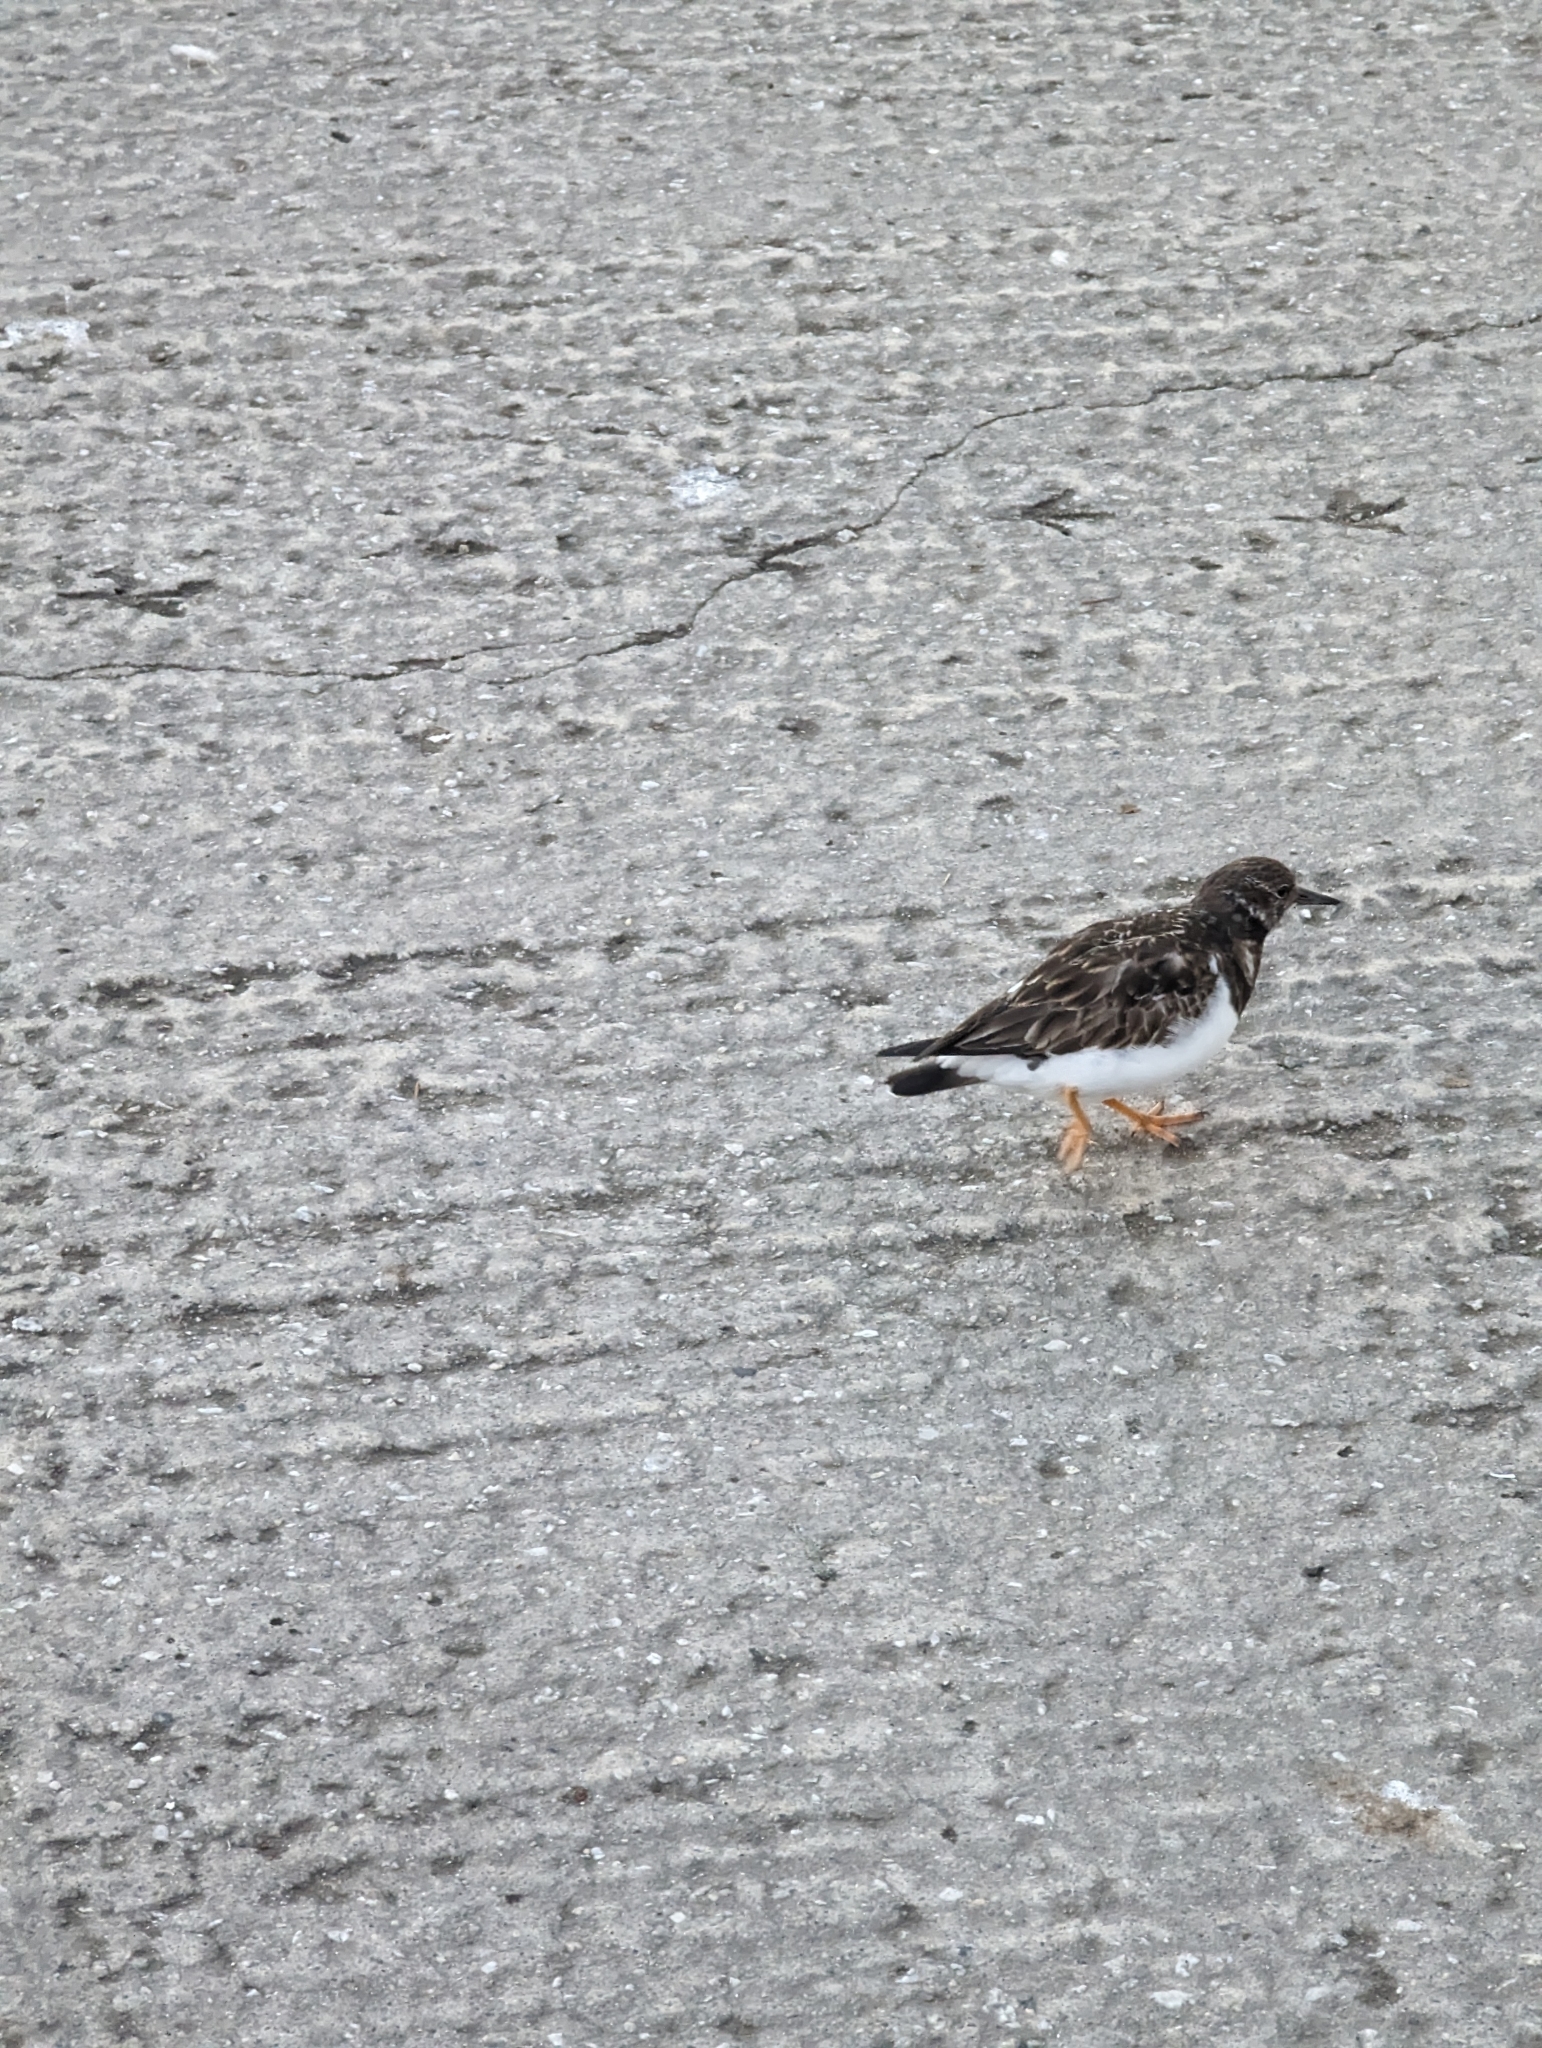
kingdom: Animalia
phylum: Chordata
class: Aves
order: Charadriiformes
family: Scolopacidae
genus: Arenaria
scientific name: Arenaria interpres
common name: Ruddy turnstone
